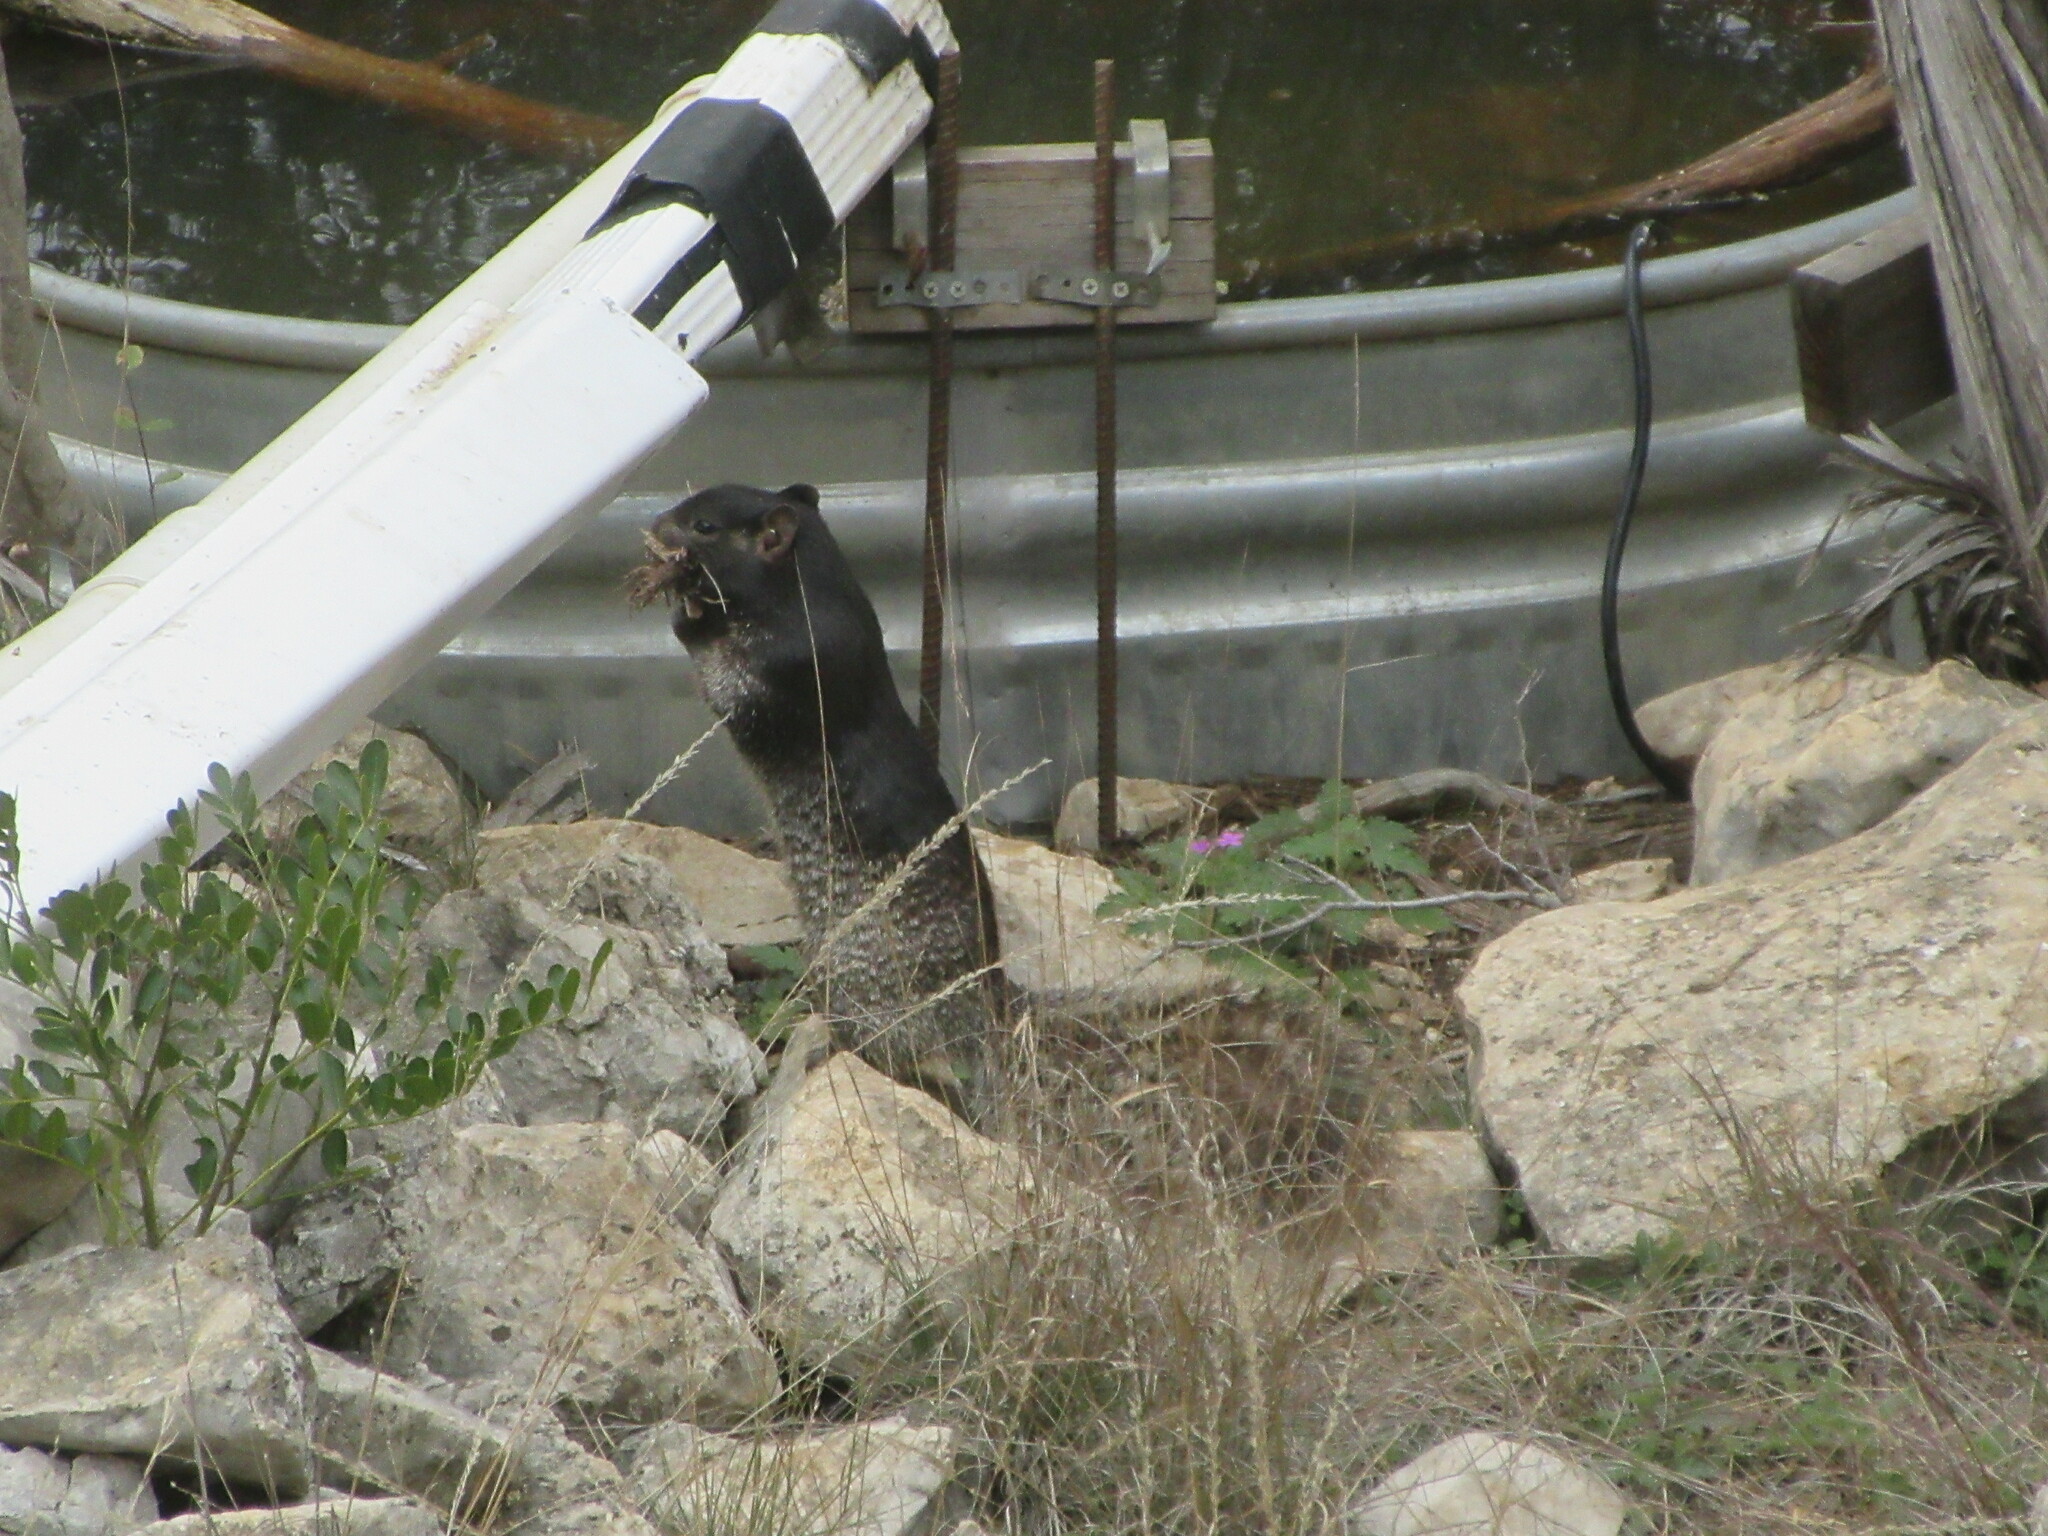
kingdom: Animalia
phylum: Chordata
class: Mammalia
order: Rodentia
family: Sciuridae
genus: Otospermophilus
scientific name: Otospermophilus variegatus
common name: Rock squirrel
